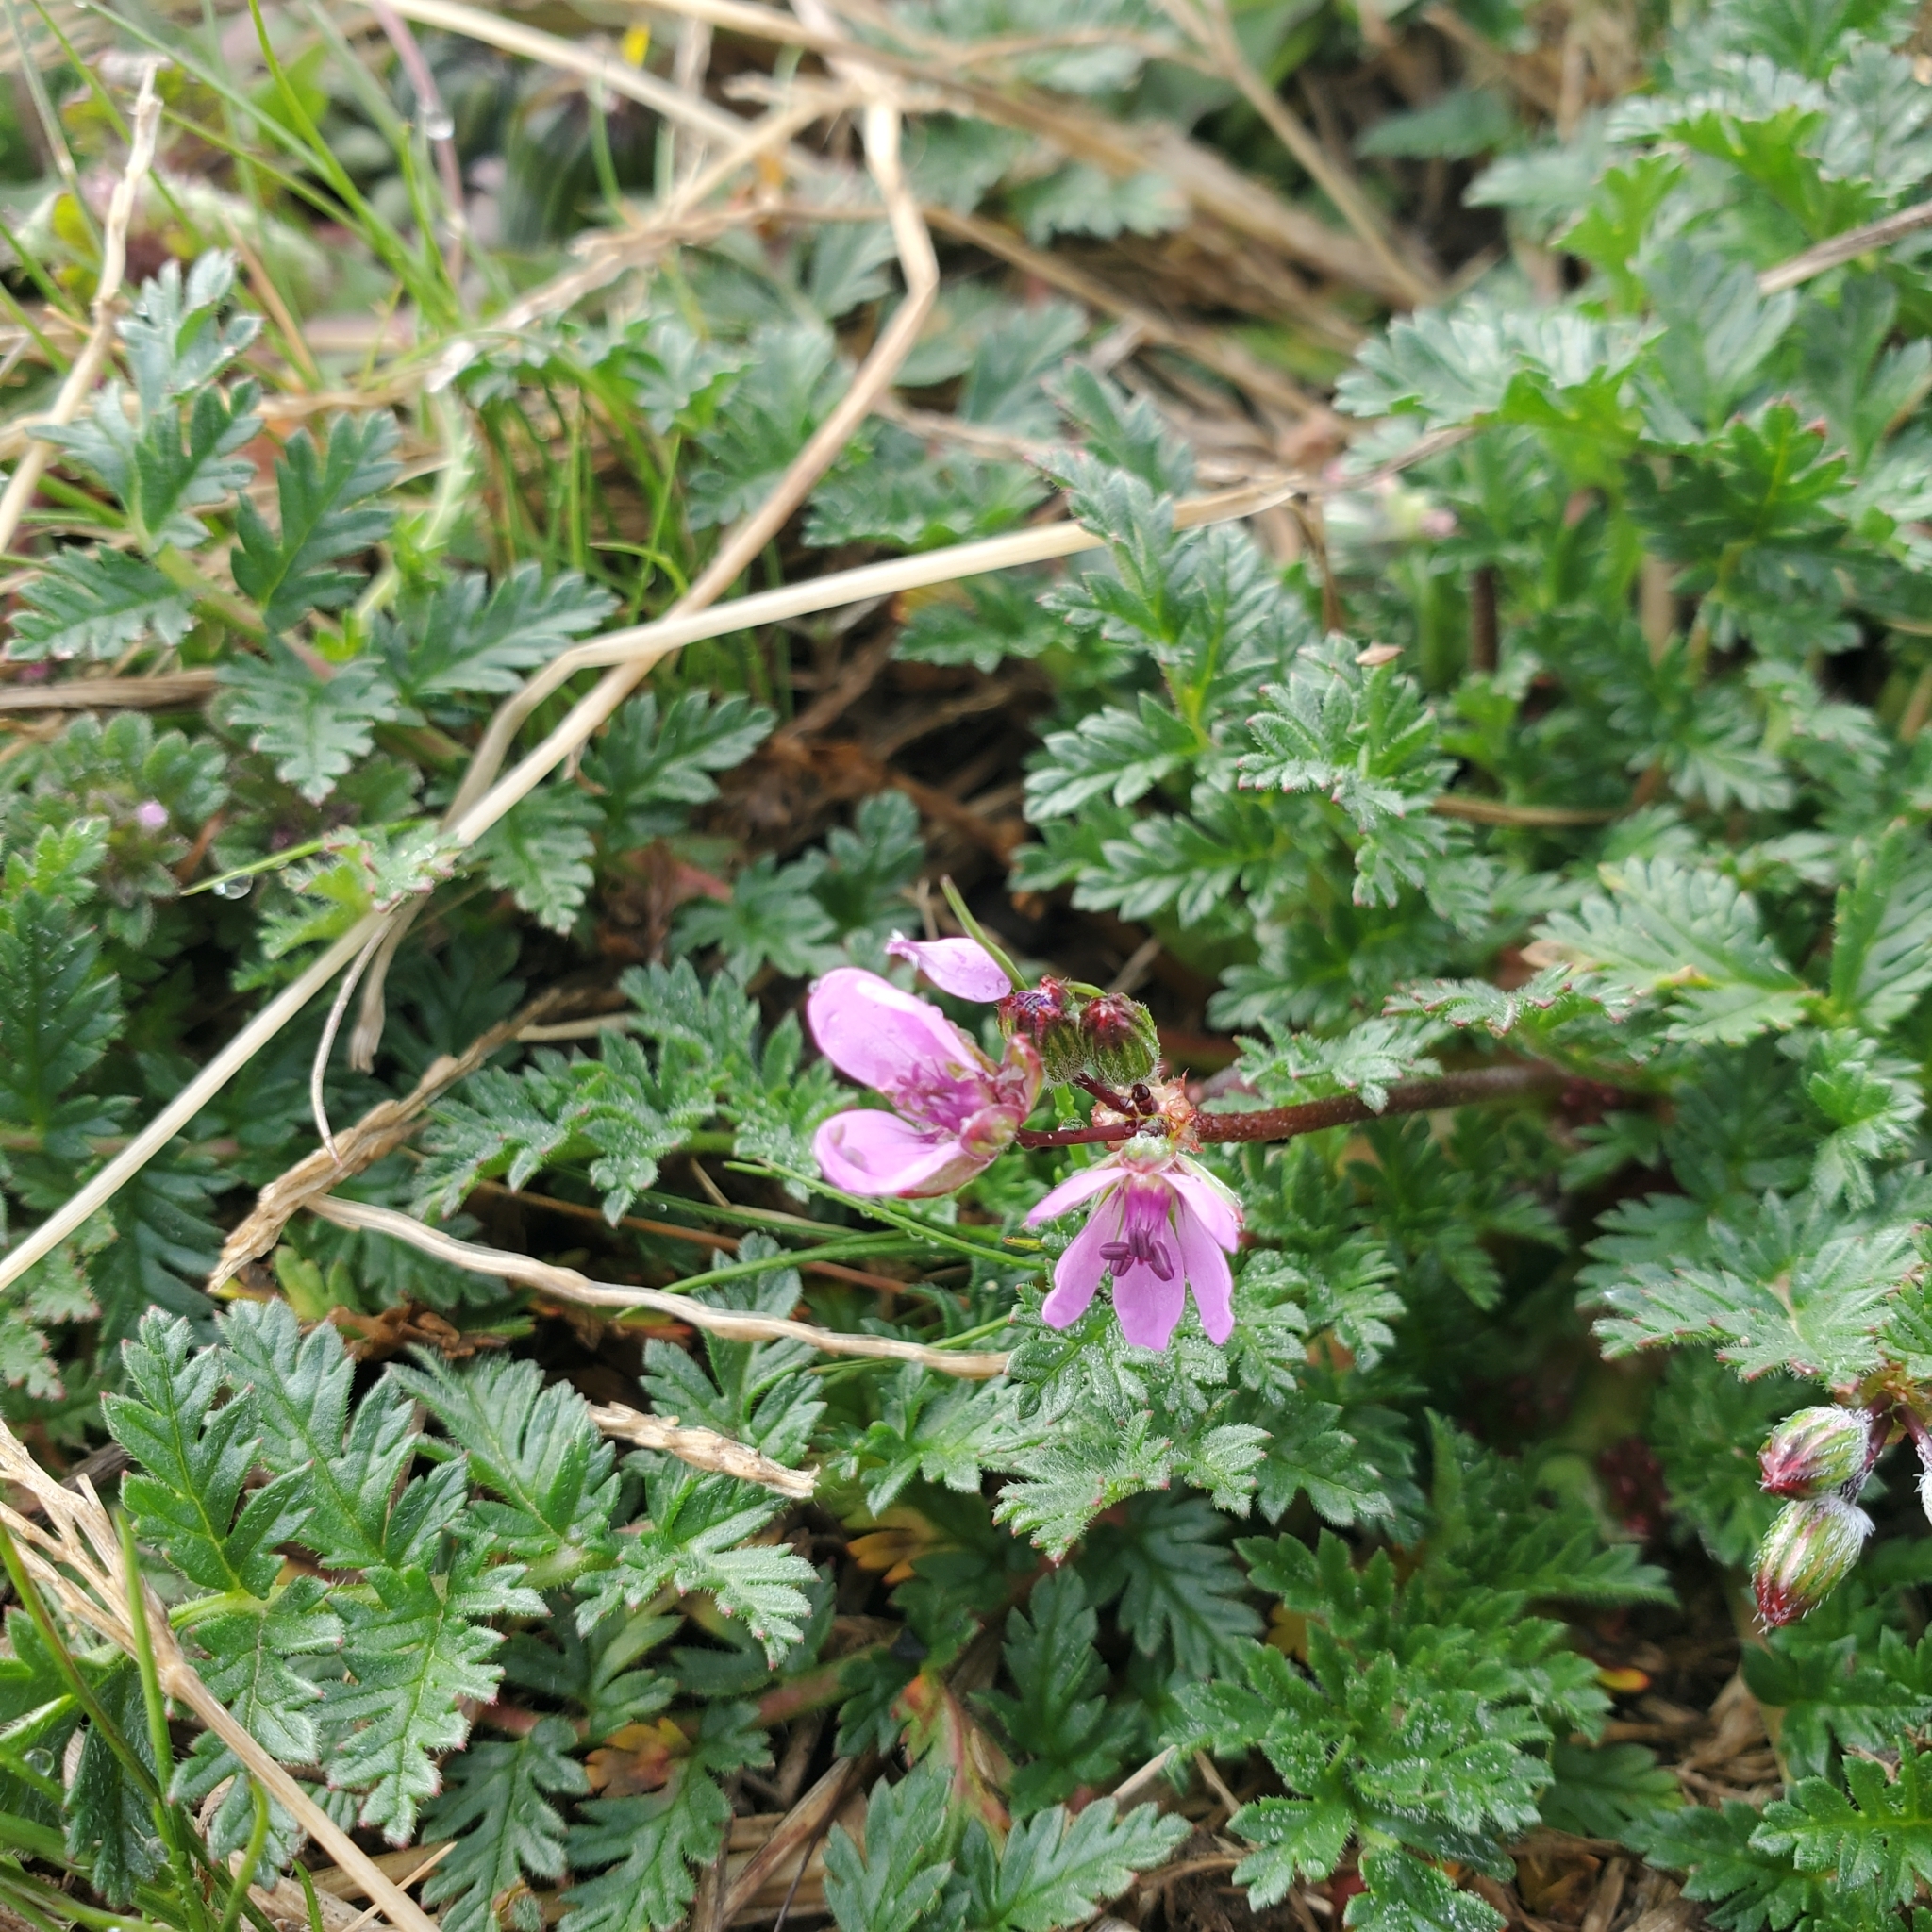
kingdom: Plantae
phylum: Tracheophyta
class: Magnoliopsida
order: Geraniales
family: Geraniaceae
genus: Erodium
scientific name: Erodium cicutarium
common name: Common stork's-bill
